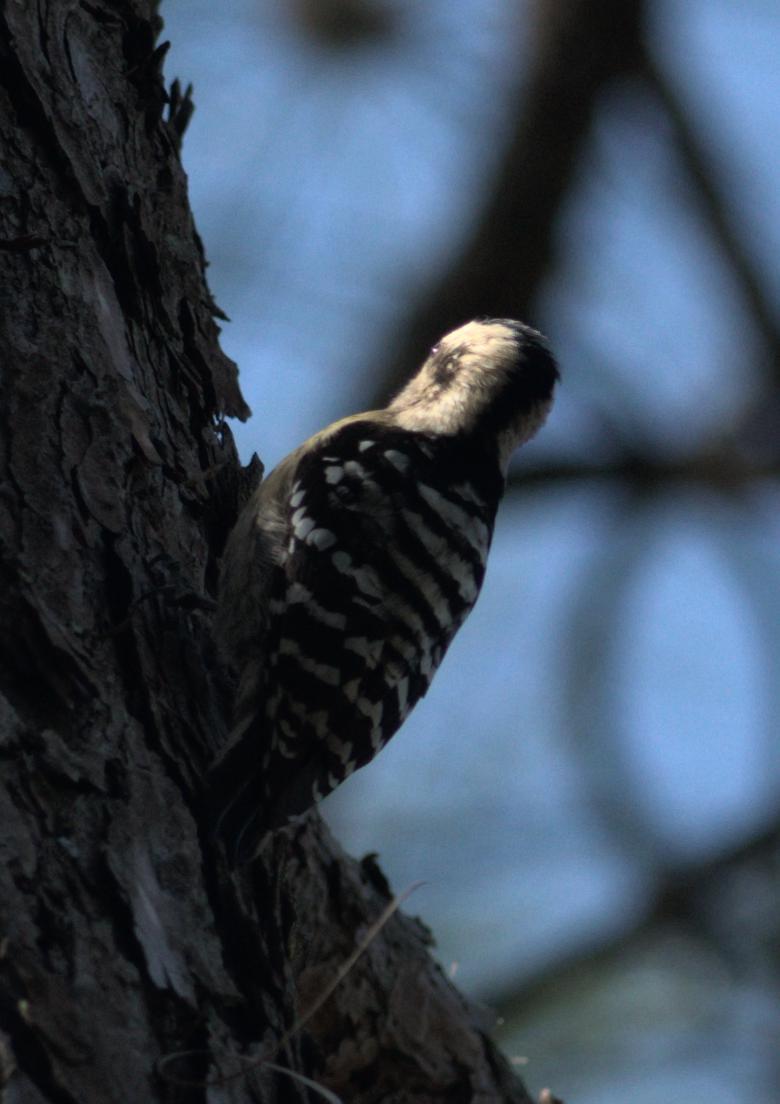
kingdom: Animalia
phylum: Chordata
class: Aves
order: Piciformes
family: Picidae
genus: Yungipicus
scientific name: Yungipicus canicapillus
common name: Grey-capped pygmy woodpecker
